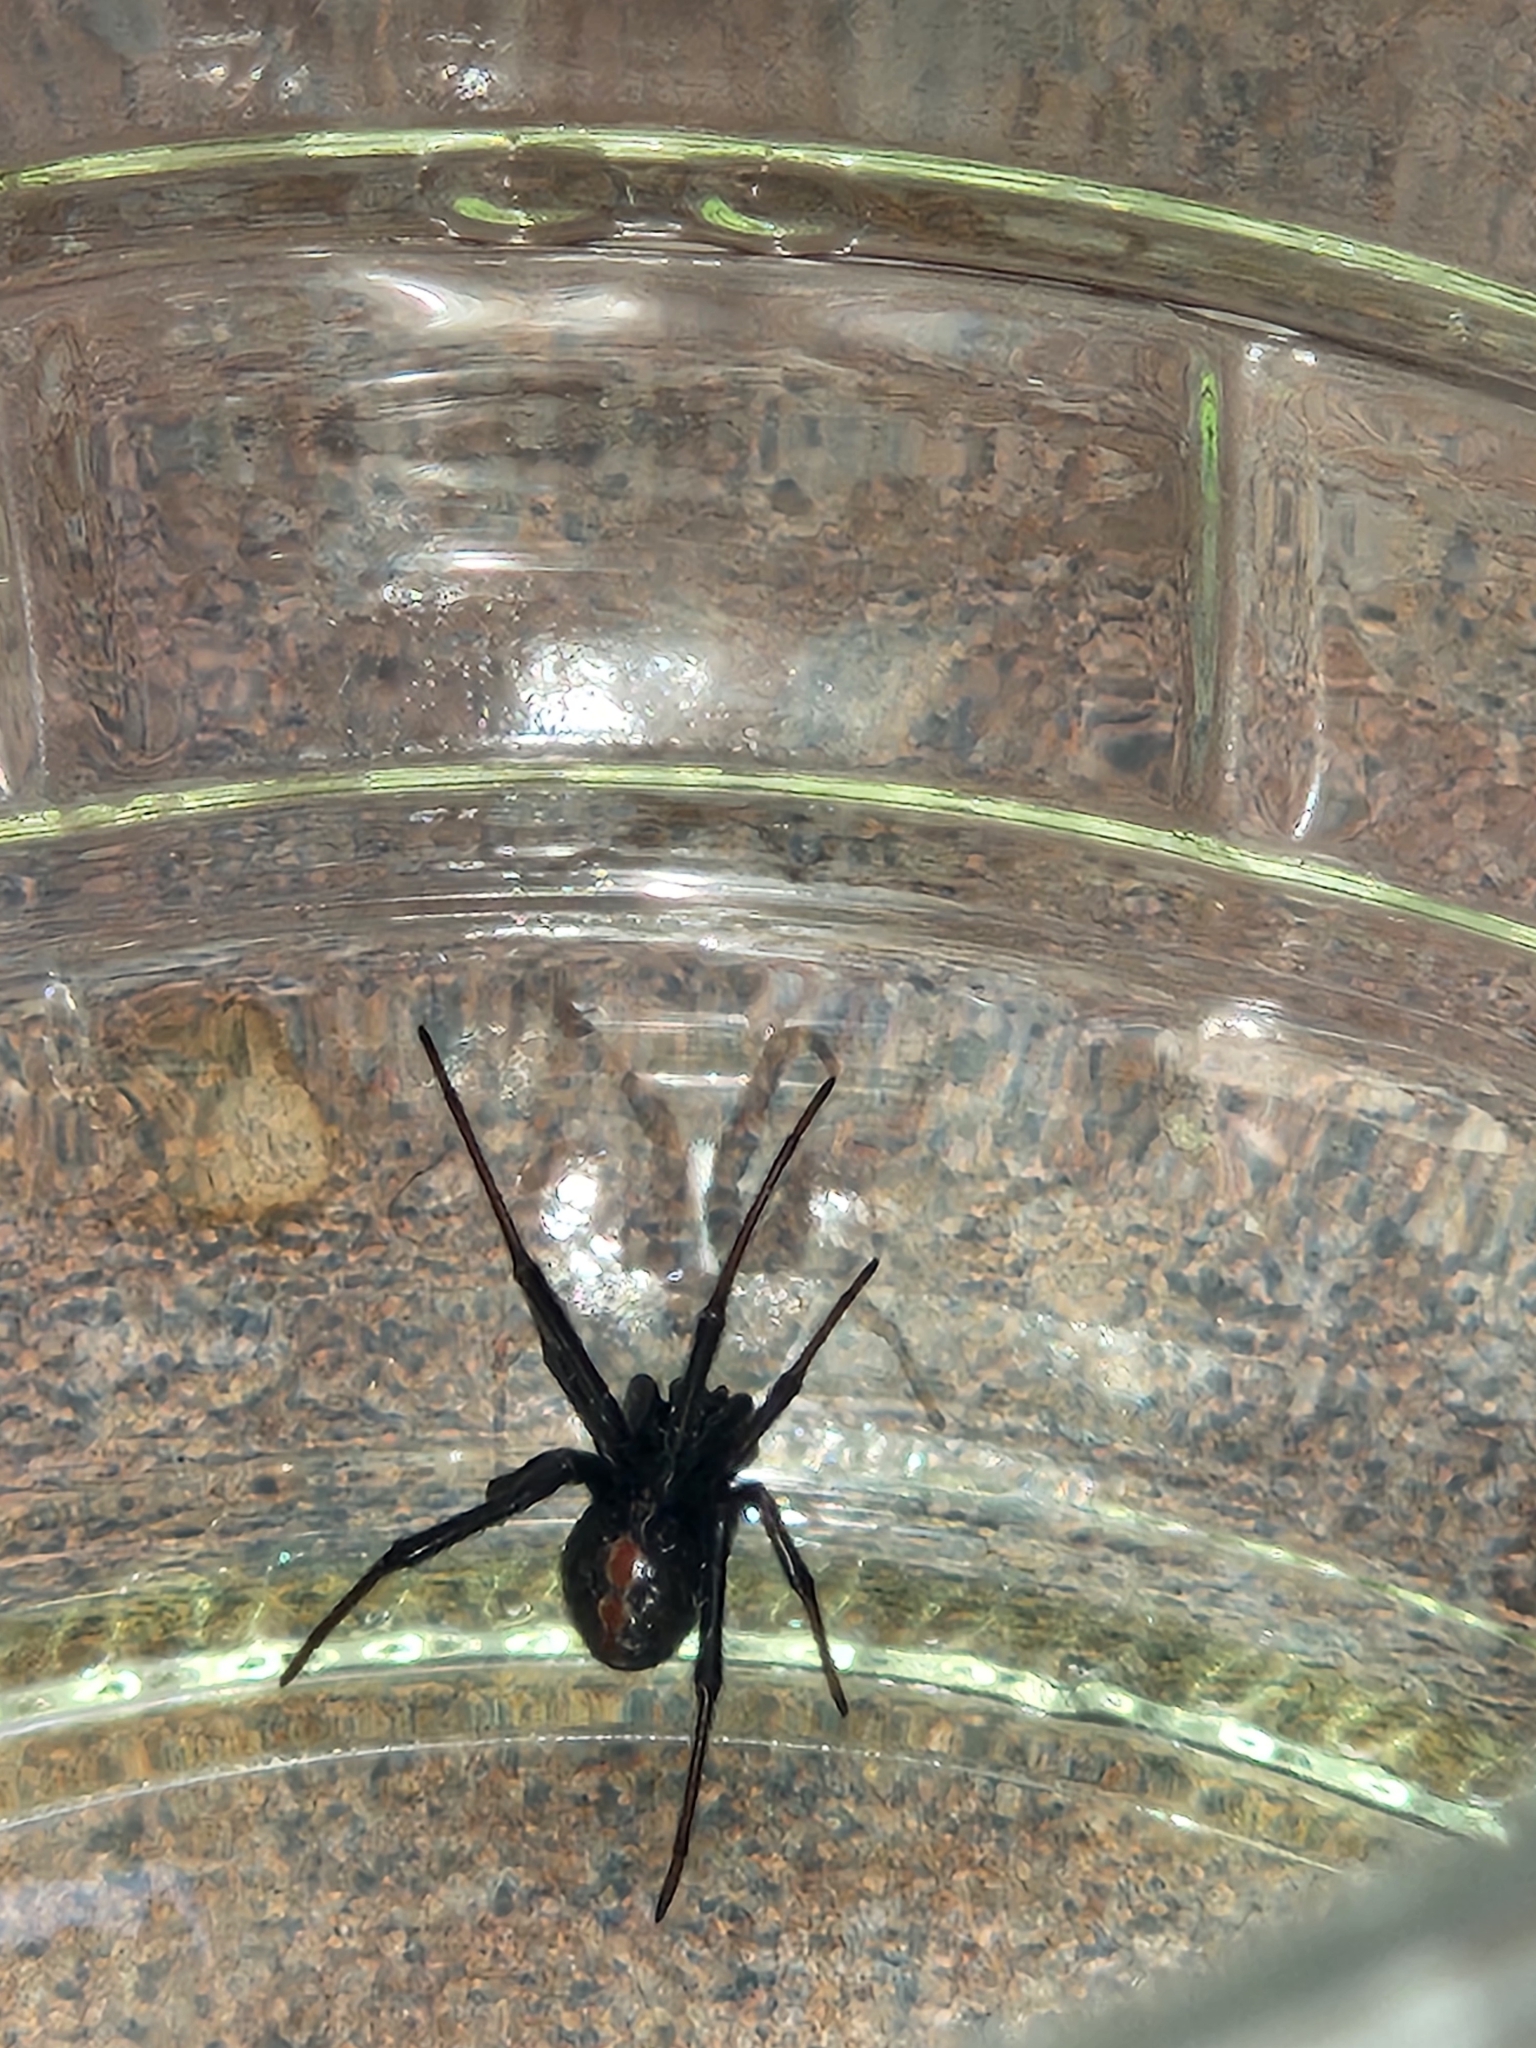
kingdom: Animalia
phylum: Arthropoda
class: Arachnida
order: Araneae
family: Theridiidae
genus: Latrodectus
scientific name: Latrodectus hesperus
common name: Western black widow
